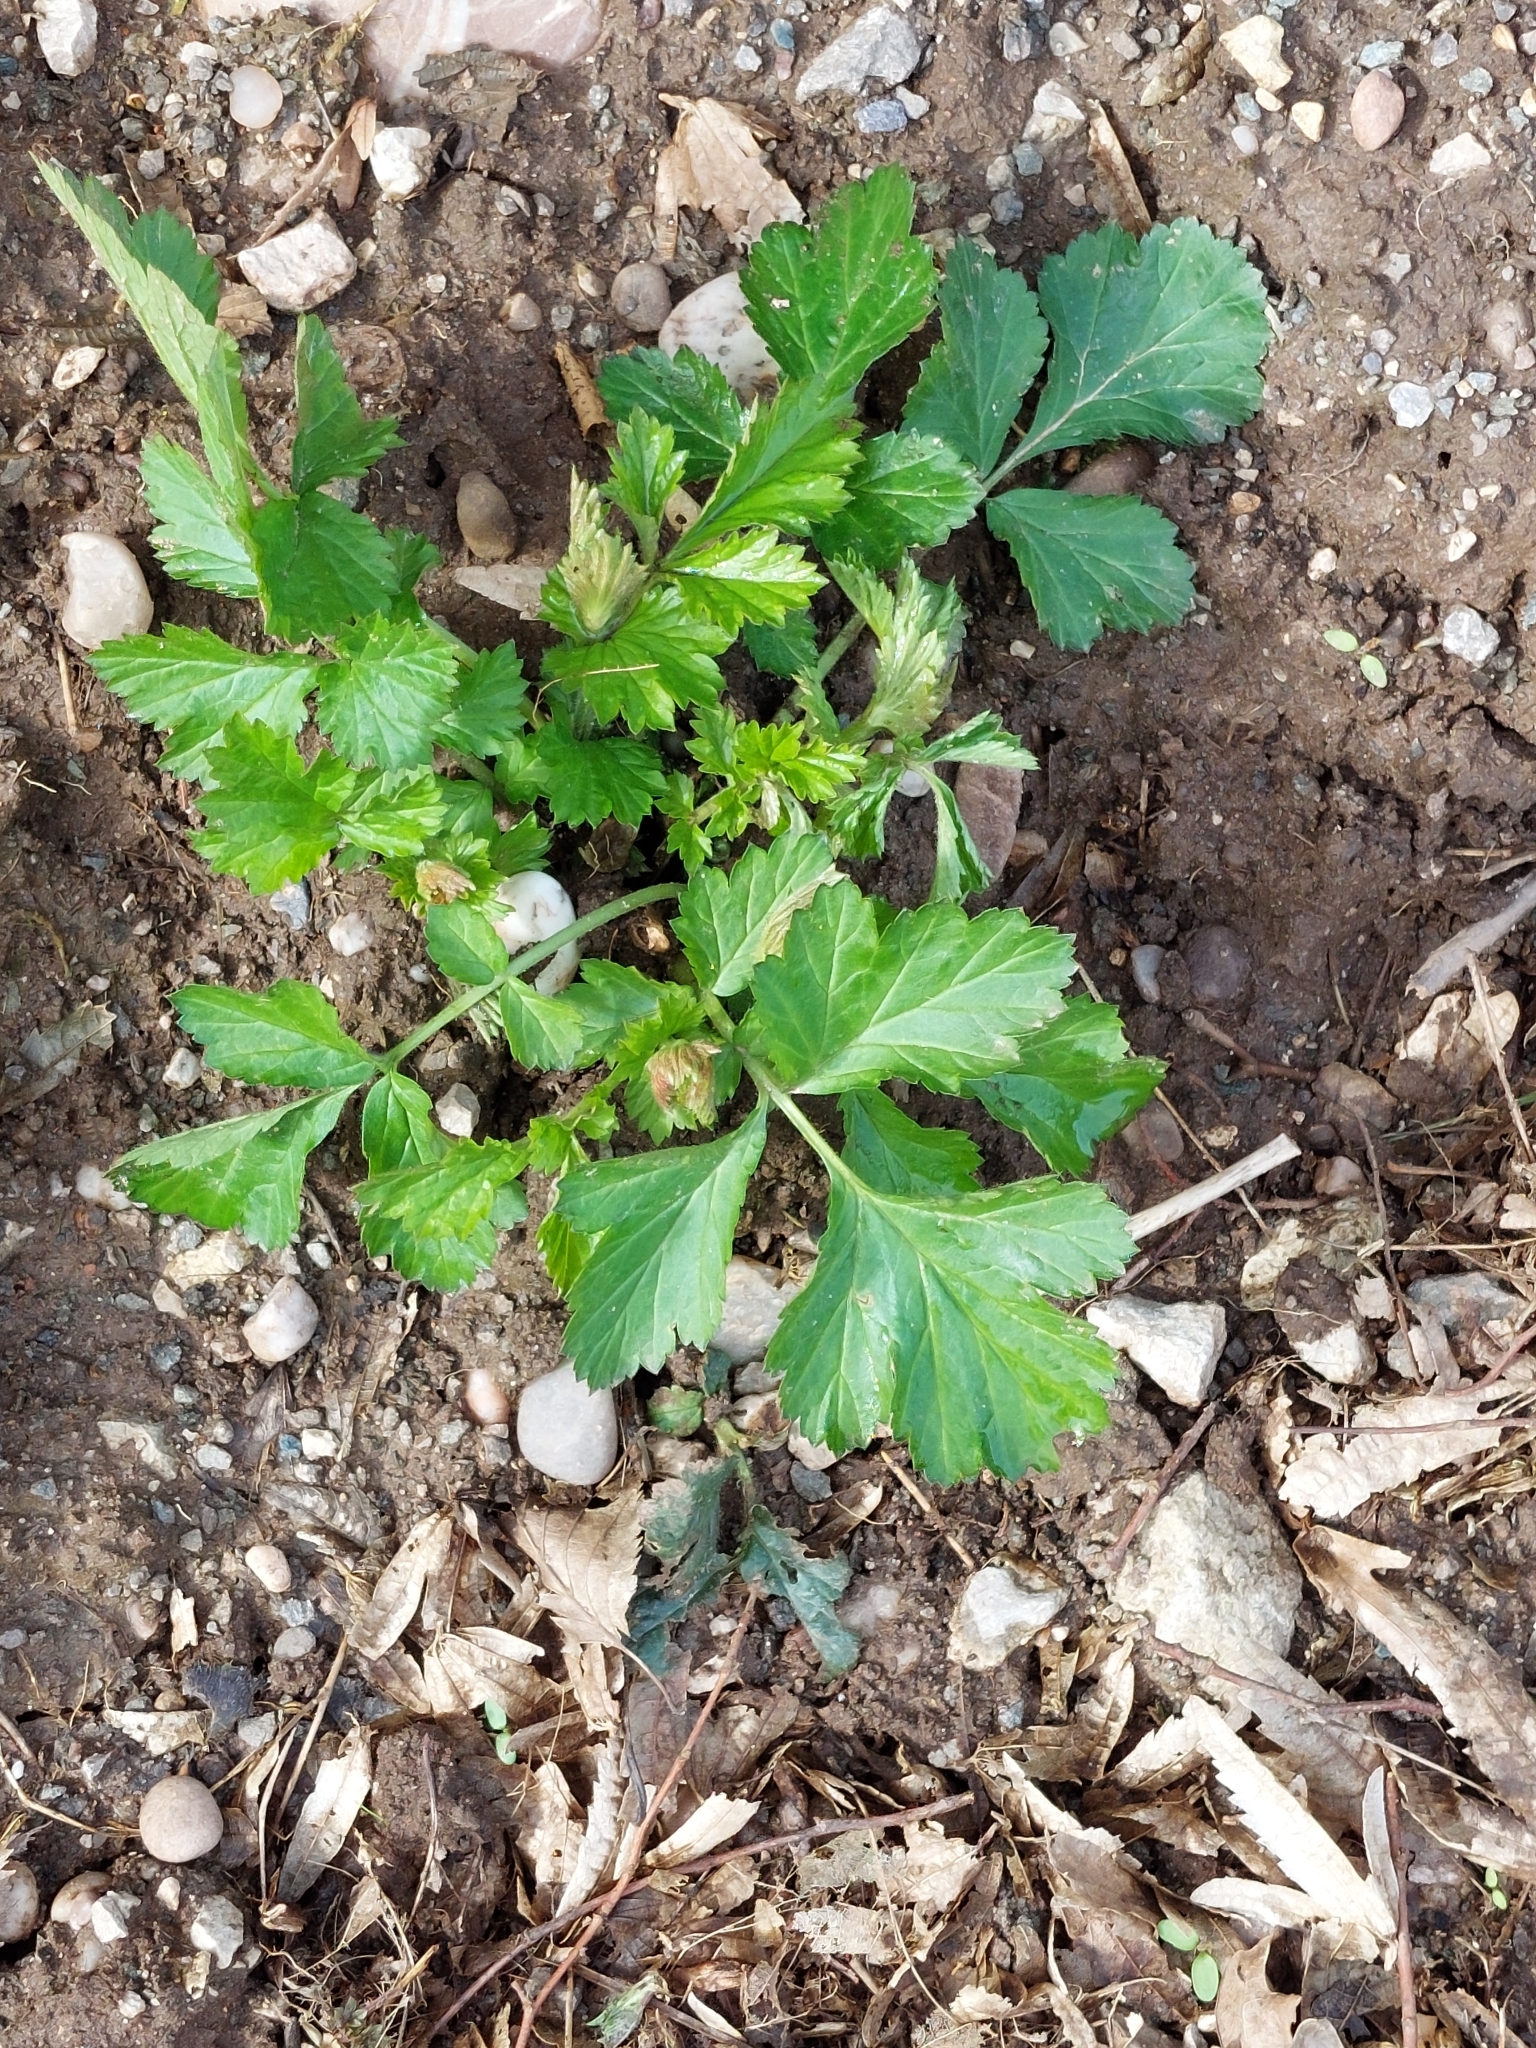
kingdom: Plantae
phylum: Tracheophyta
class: Magnoliopsida
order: Rosales
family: Rosaceae
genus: Geum
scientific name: Geum urbanum
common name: Wood avens
